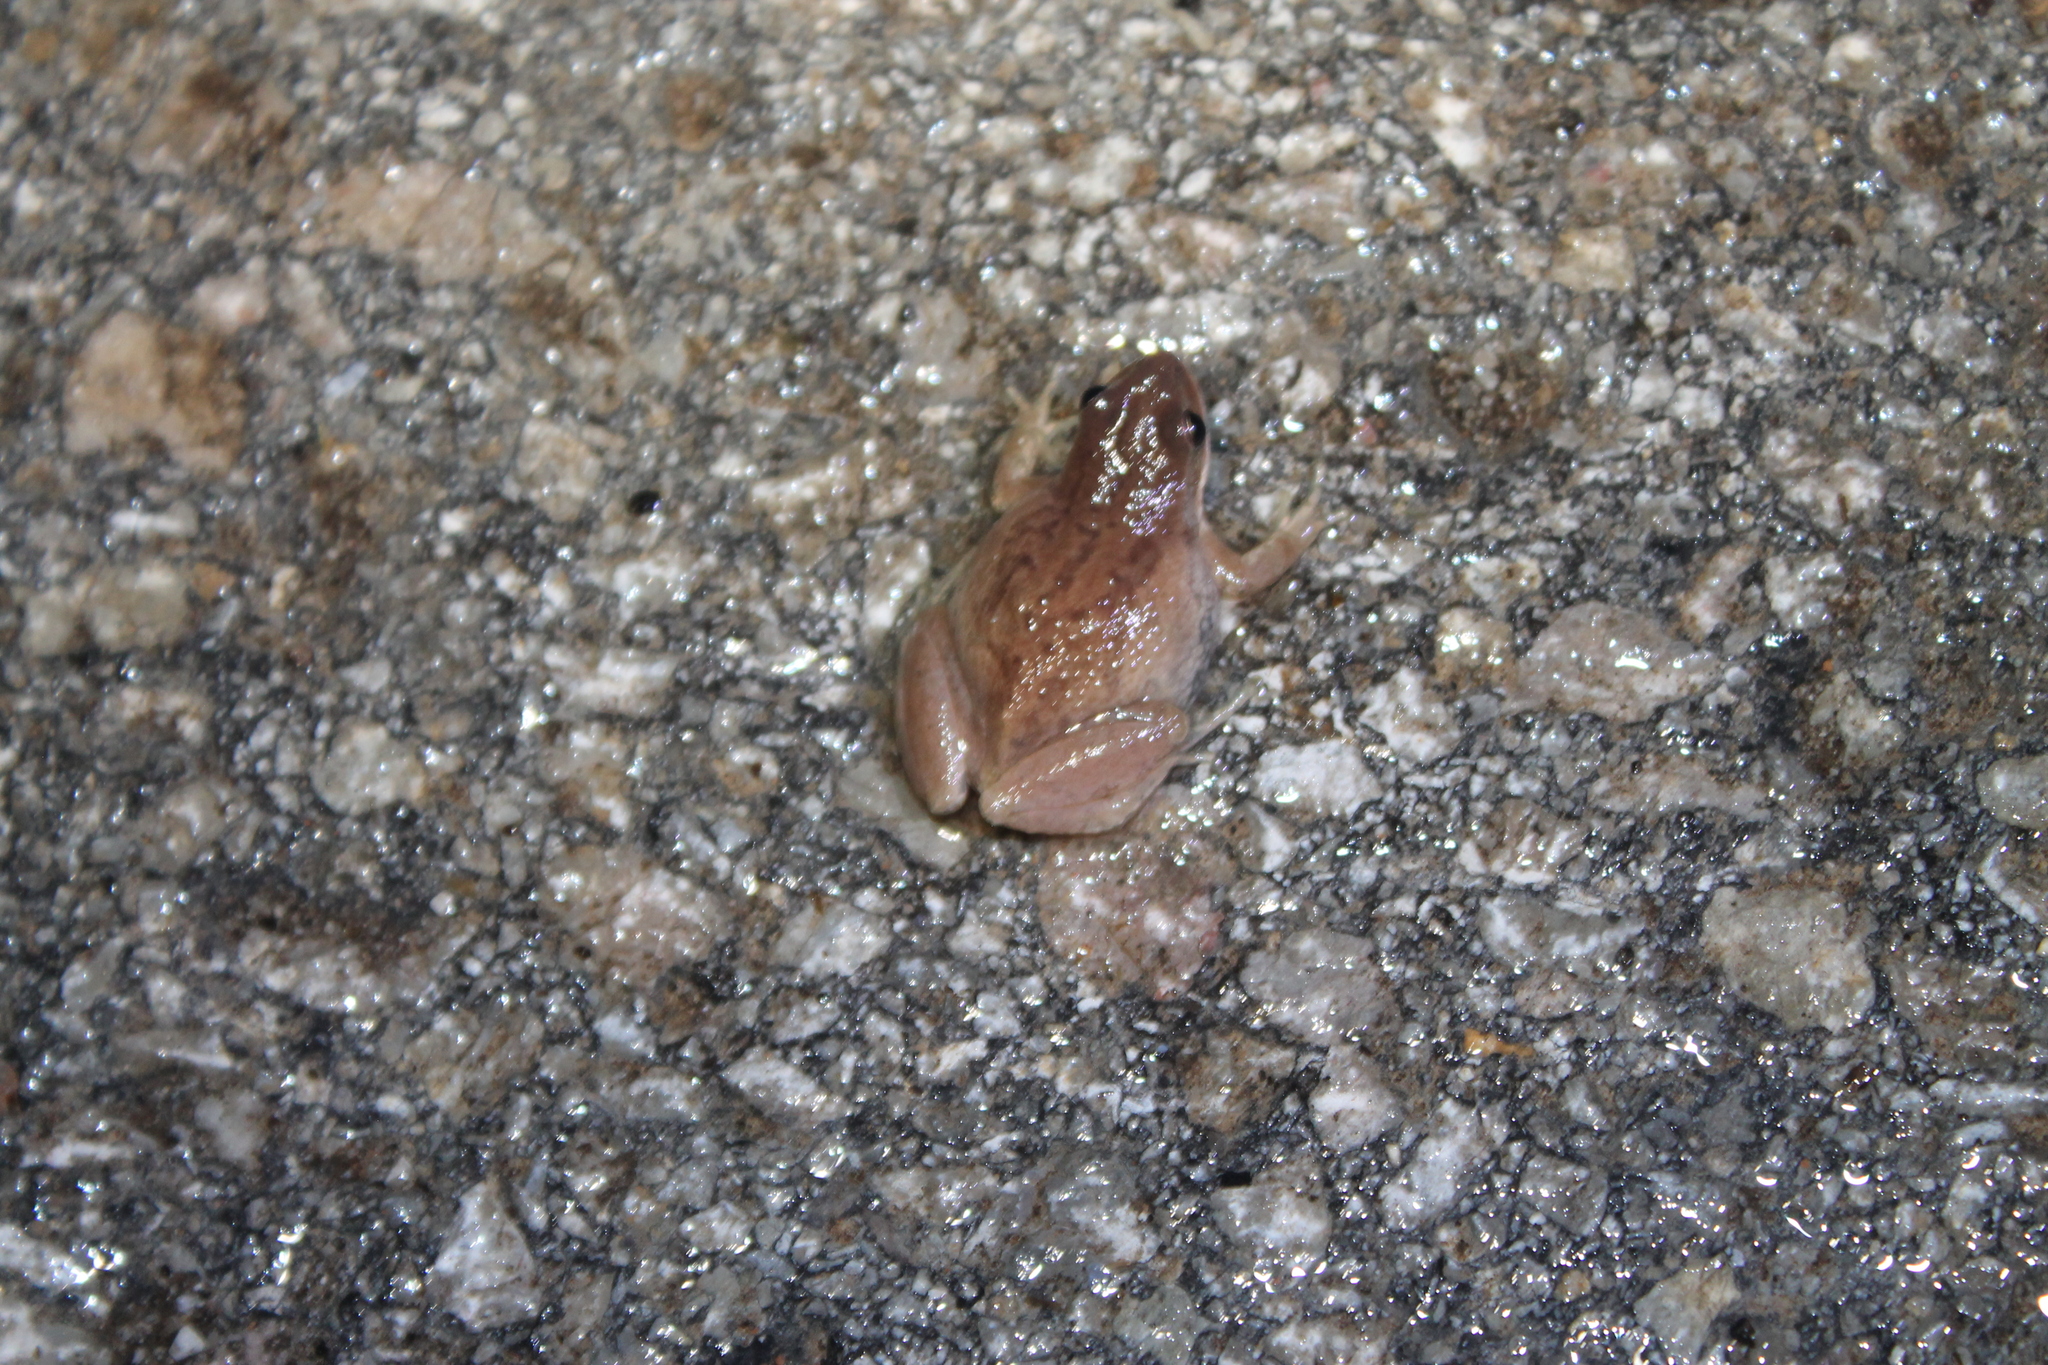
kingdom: Animalia
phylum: Chordata
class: Amphibia
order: Anura
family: Hylidae
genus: Pseudacris
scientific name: Pseudacris feriarum
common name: Upland chorus frog
